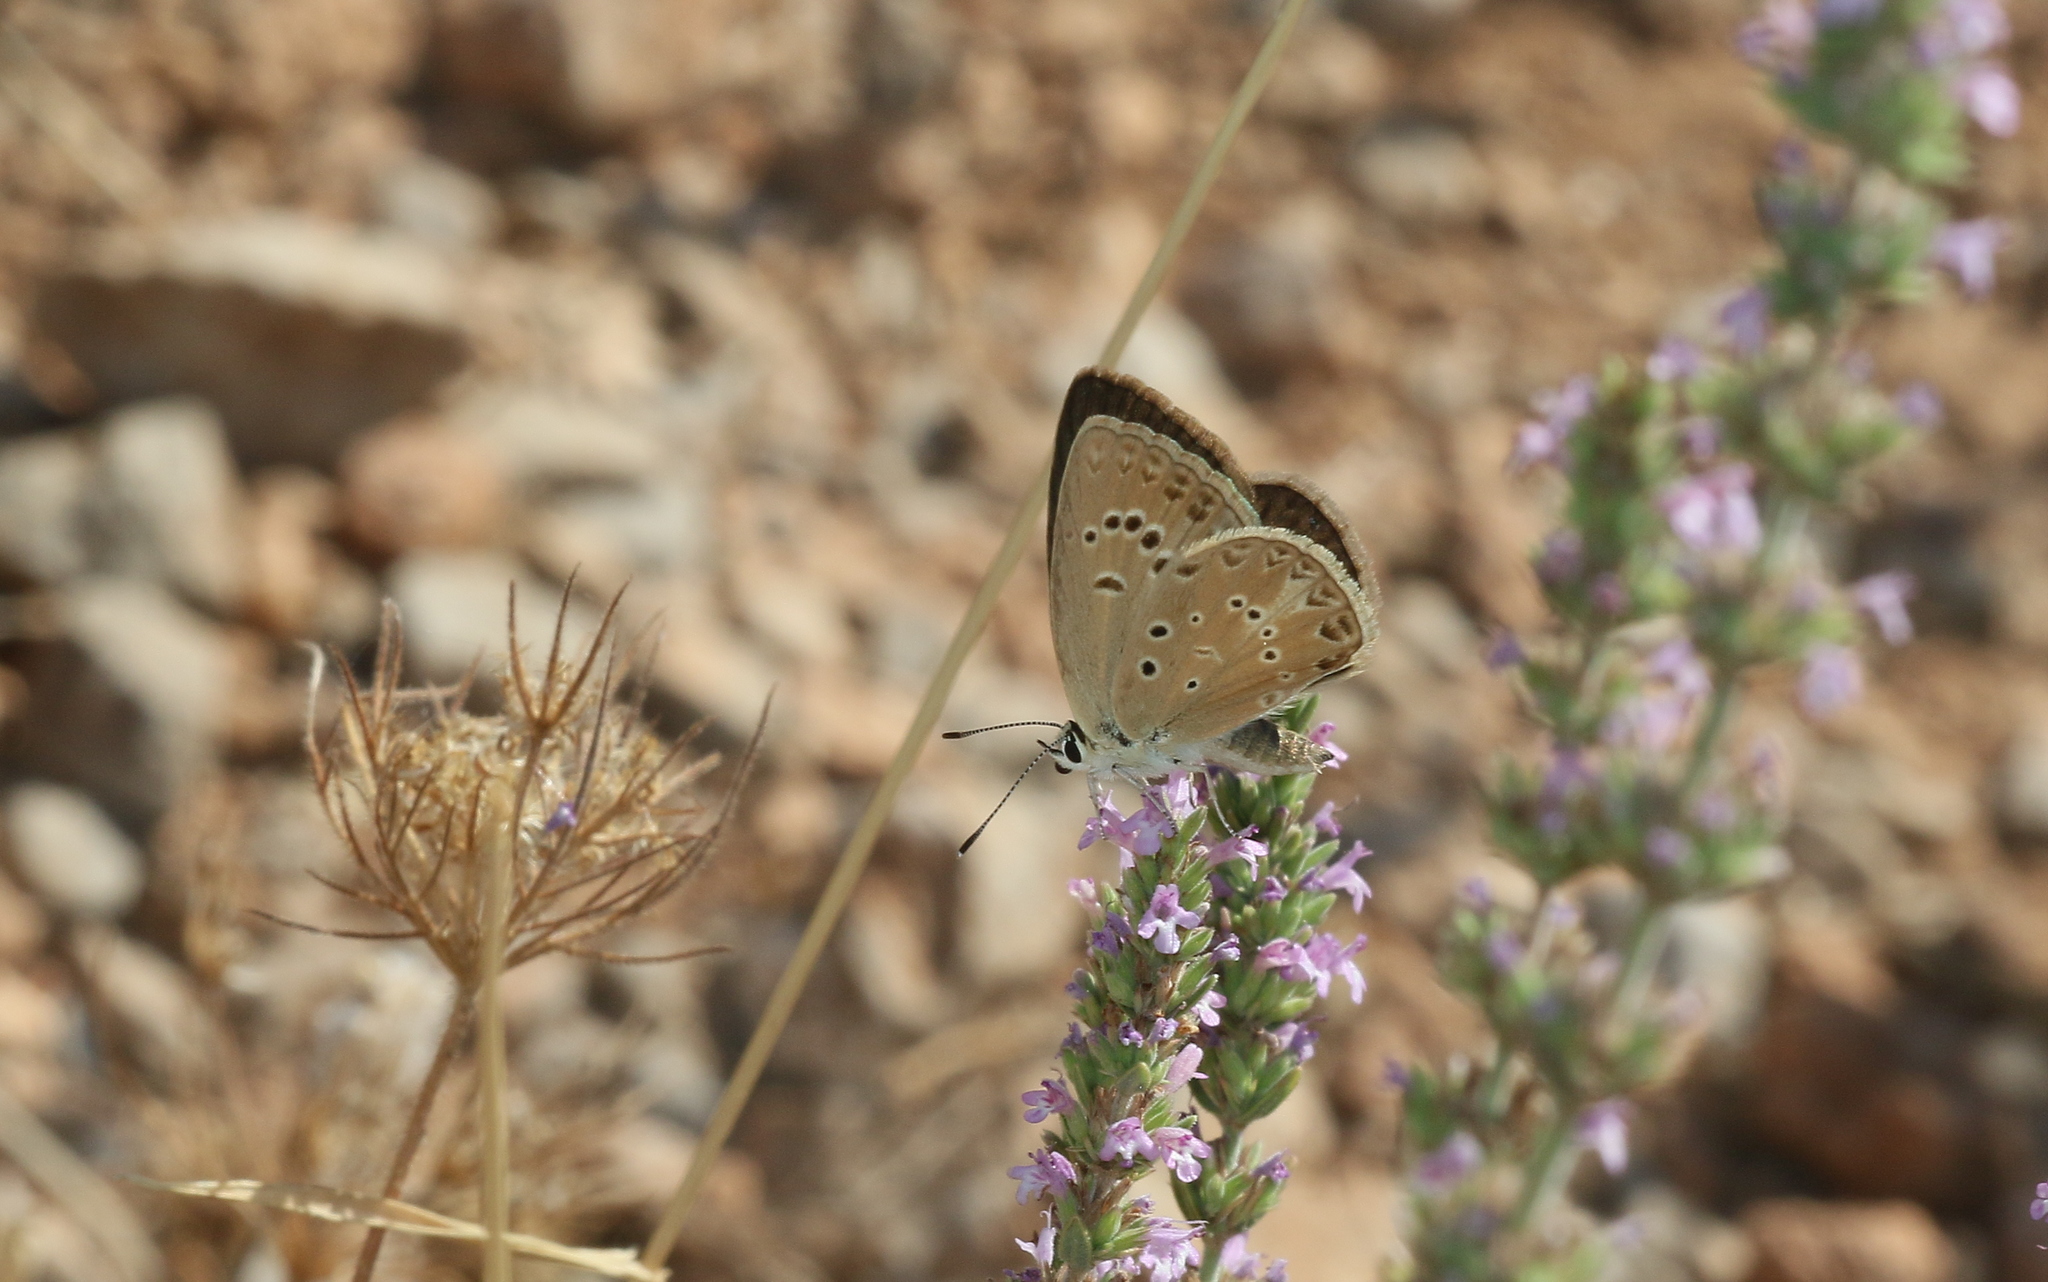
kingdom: Animalia
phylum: Arthropoda
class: Insecta
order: Lepidoptera
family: Lycaenidae
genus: Agrodiaetus
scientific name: Agrodiaetus admetus
